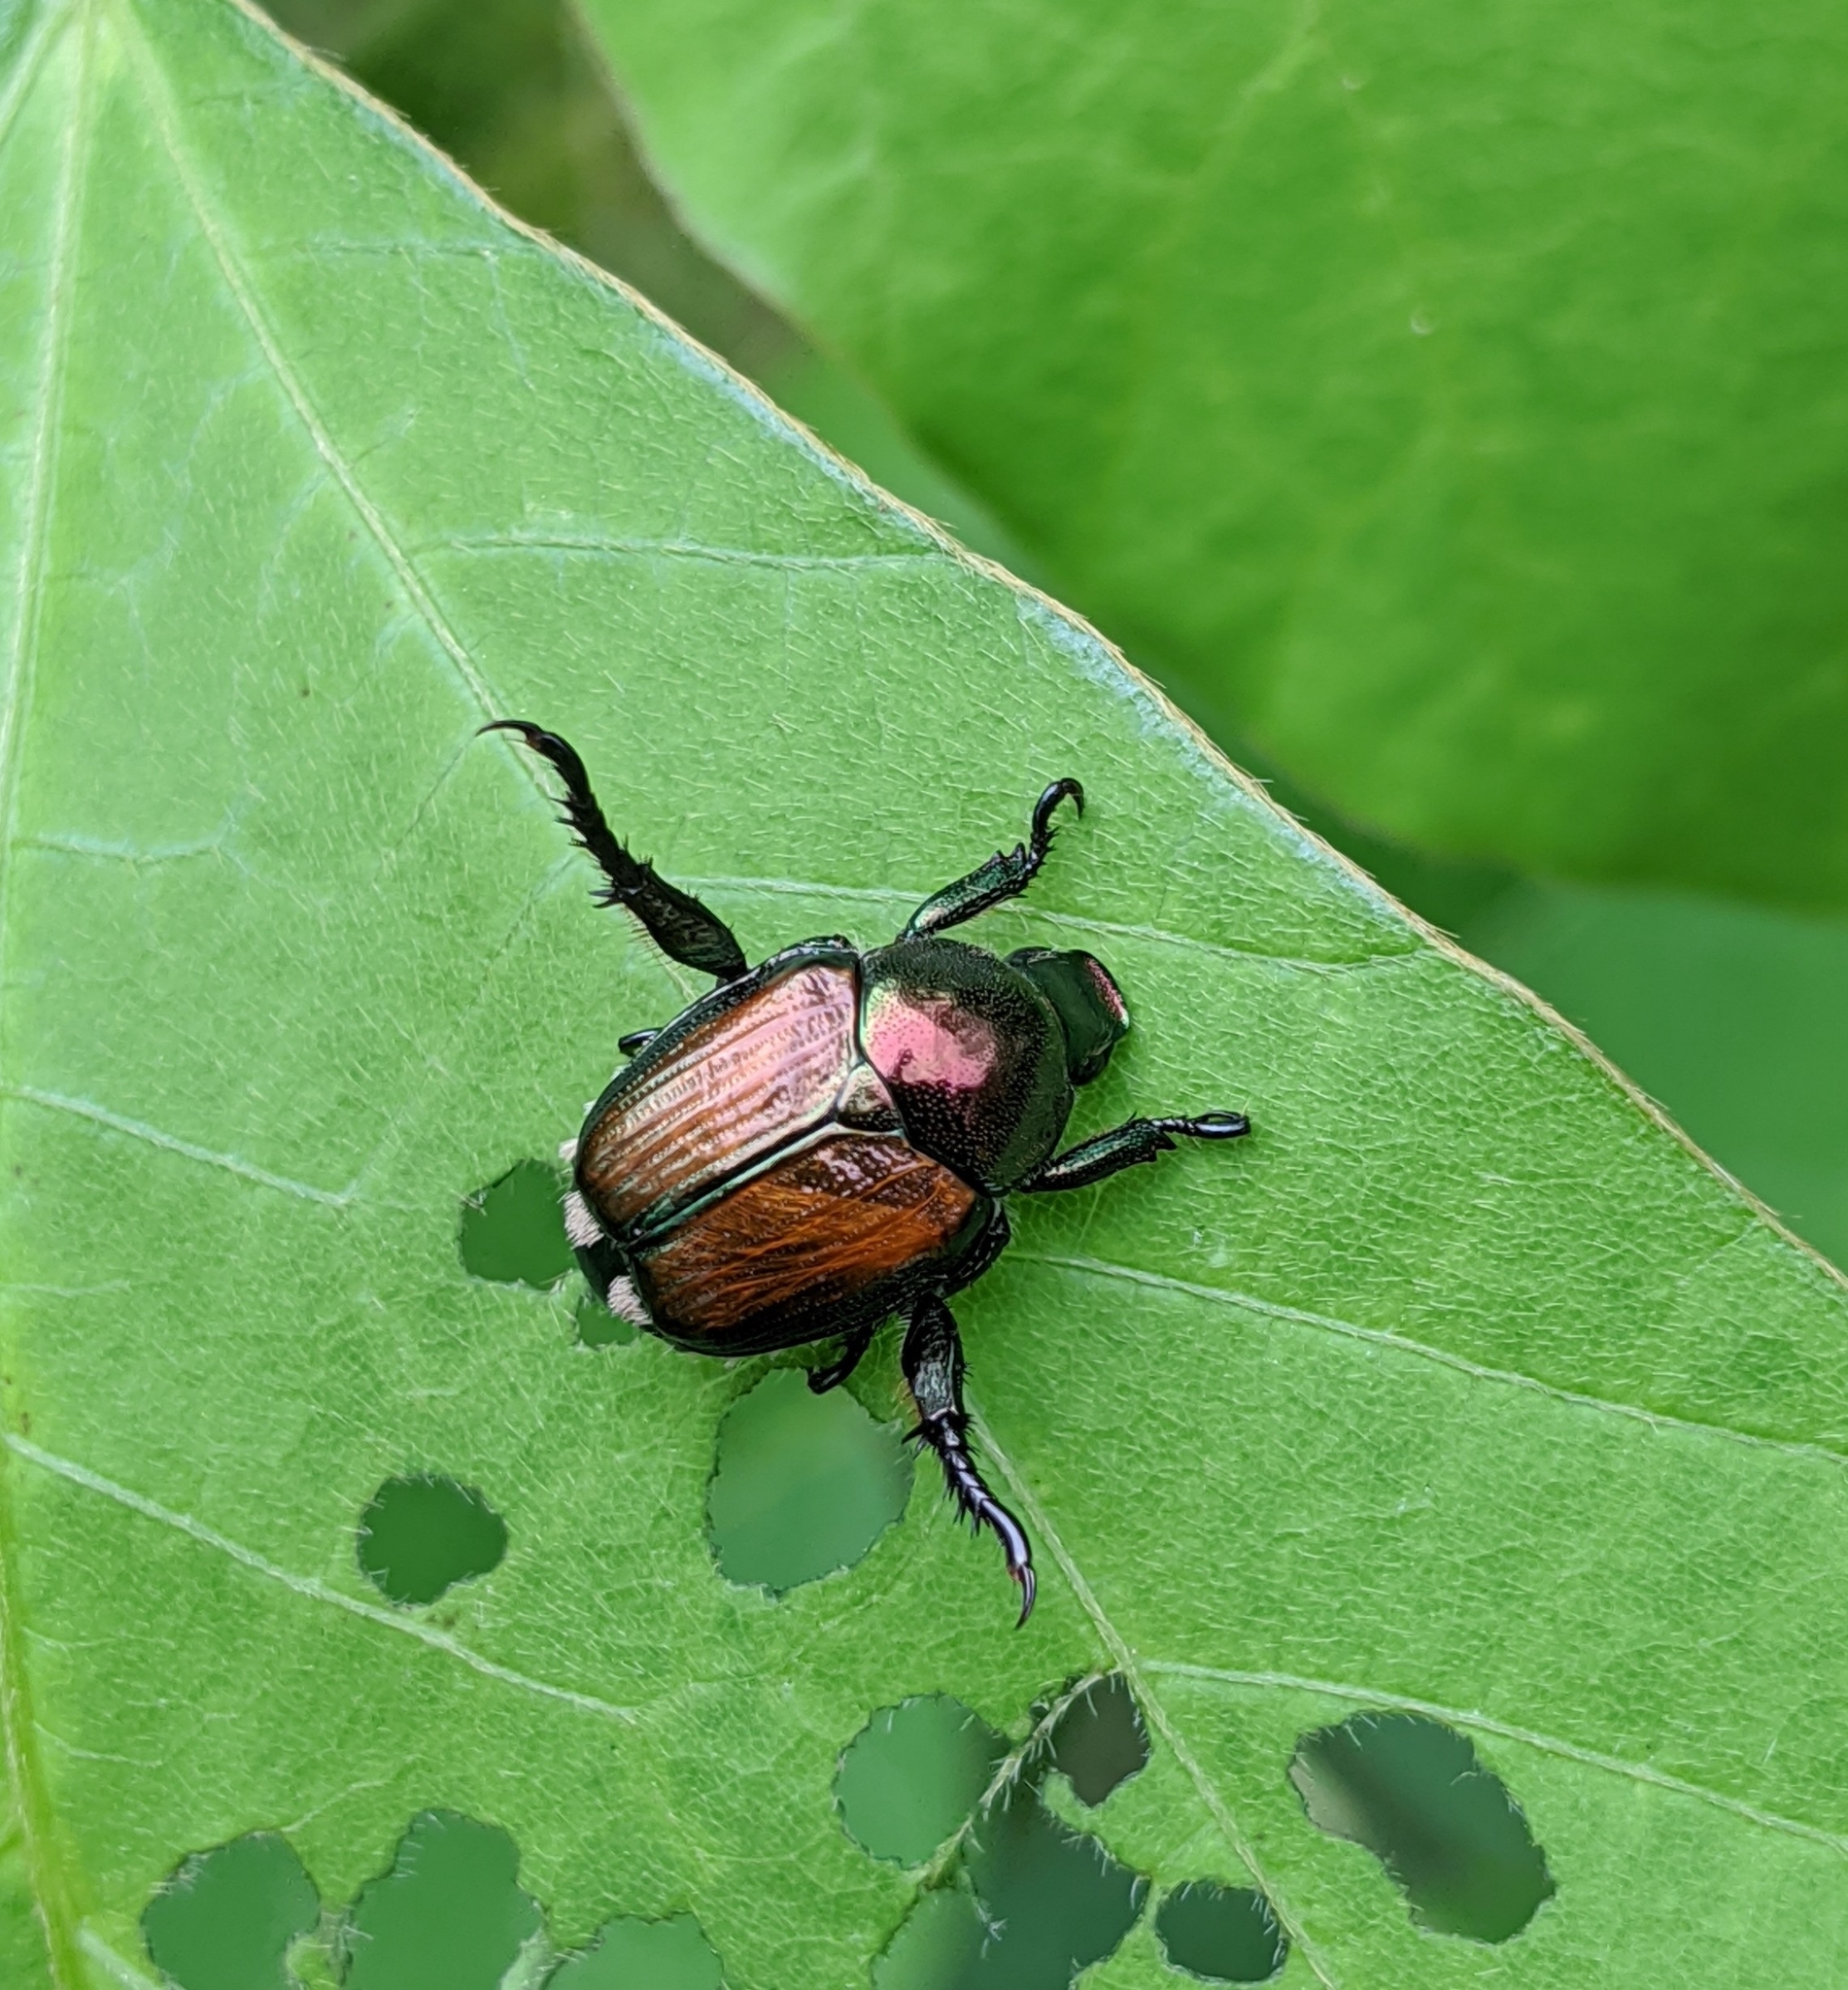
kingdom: Animalia
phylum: Arthropoda
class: Insecta
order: Coleoptera
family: Scarabaeidae
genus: Popillia
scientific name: Popillia japonica
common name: Japanese beetle
